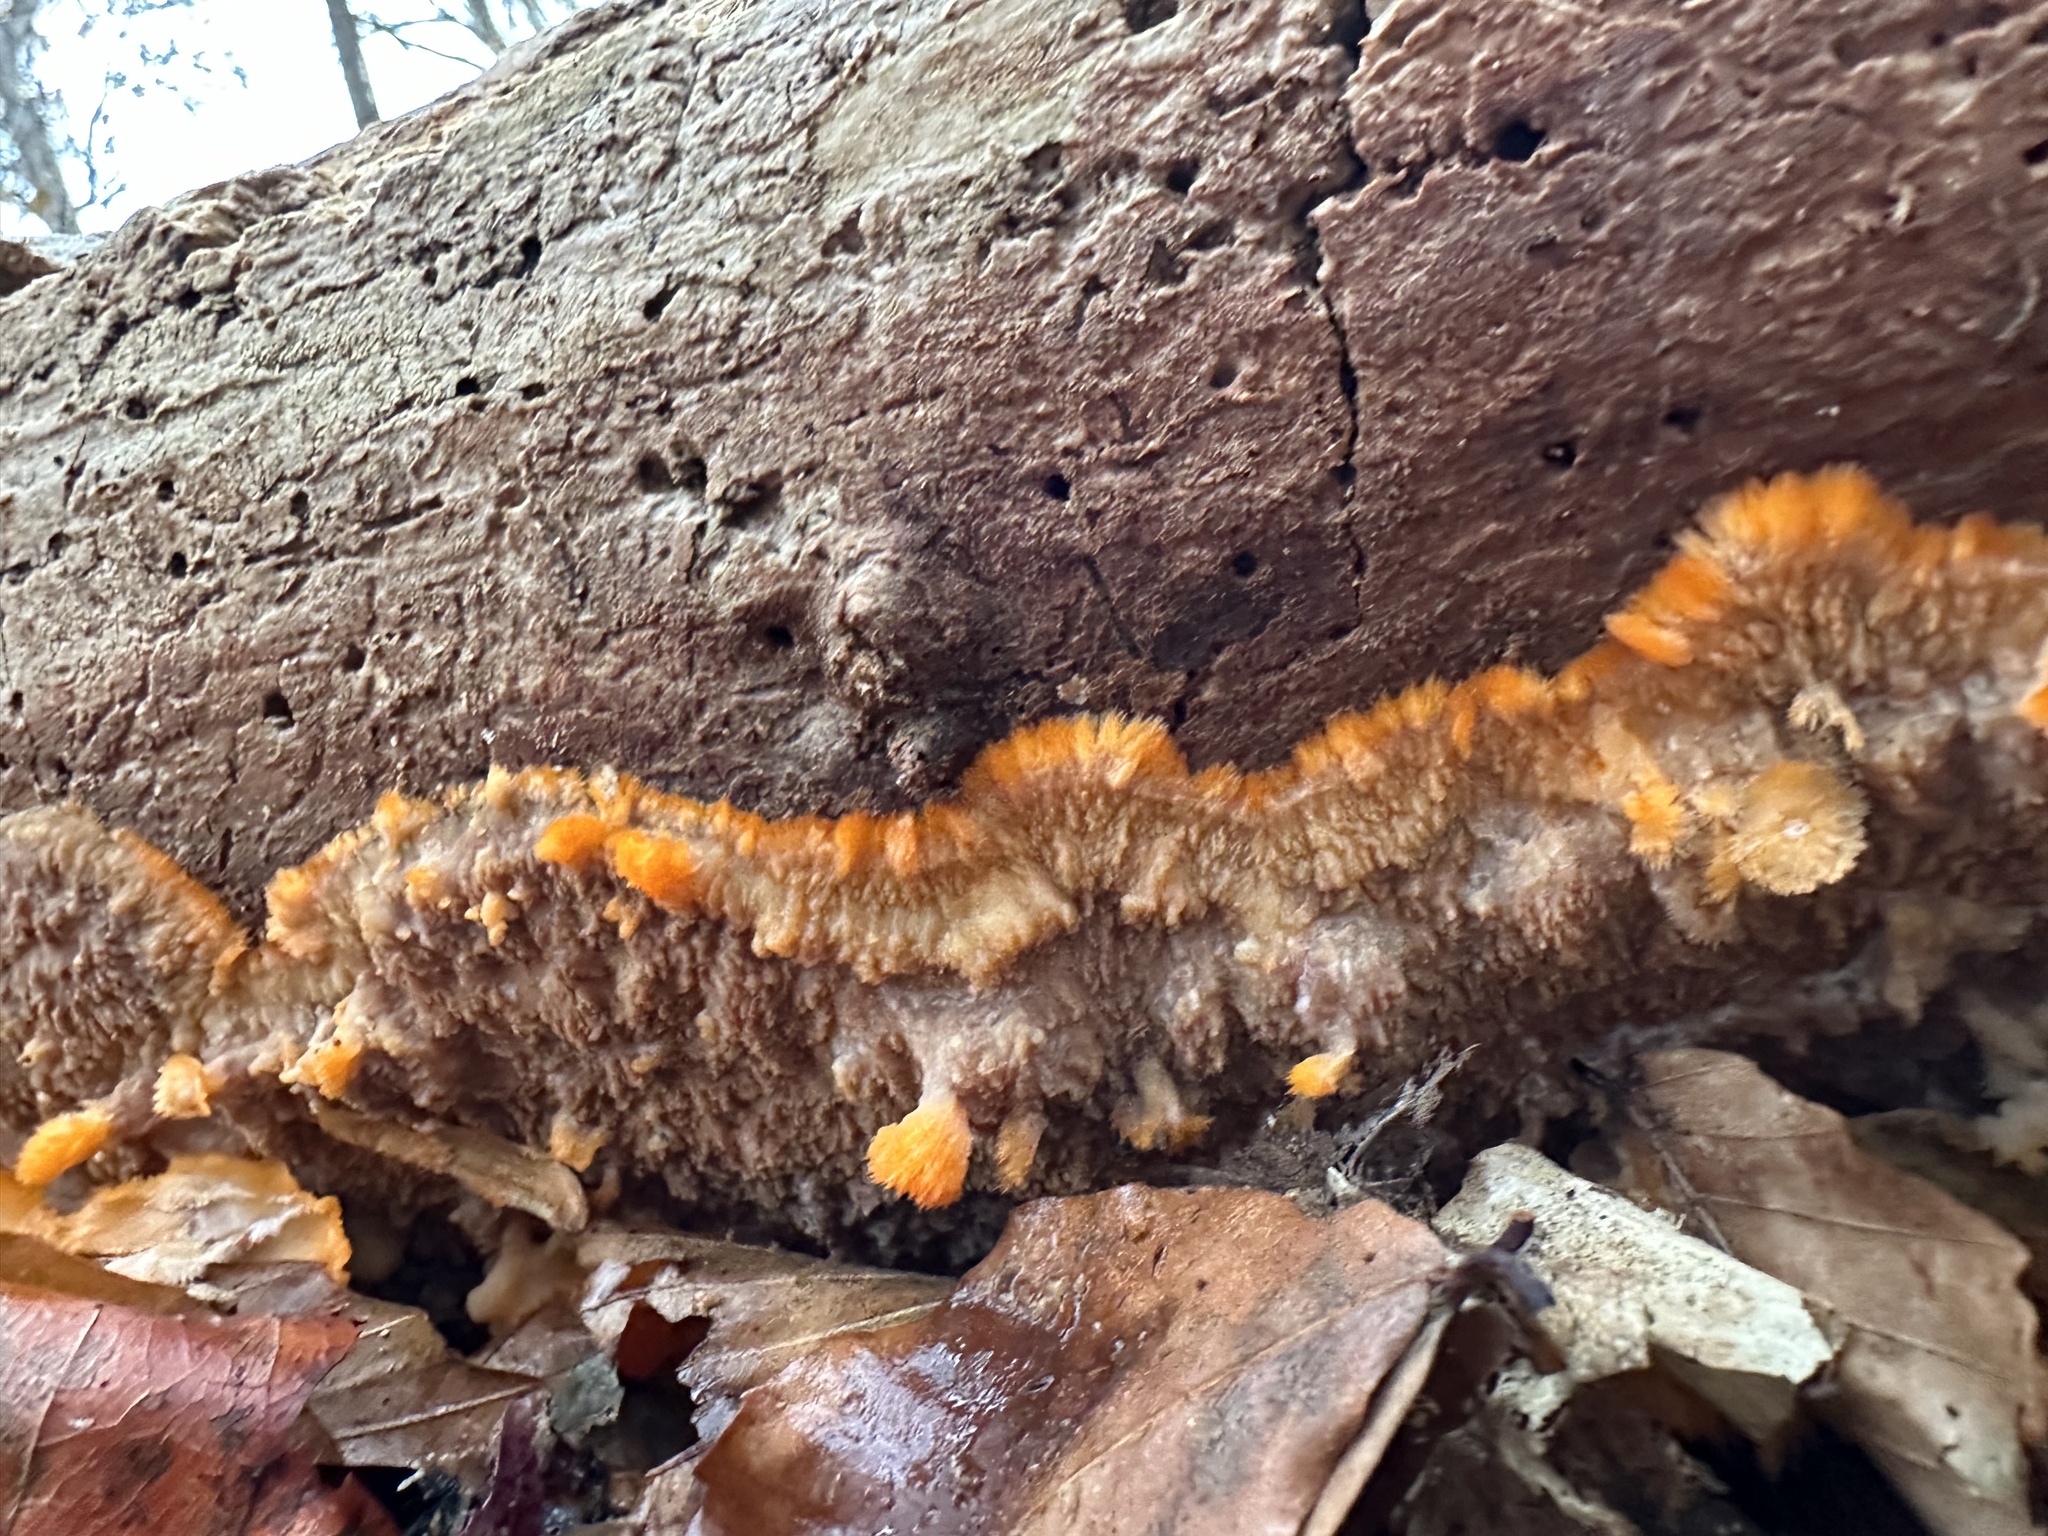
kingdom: Fungi
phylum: Basidiomycota
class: Agaricomycetes
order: Polyporales
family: Meruliaceae
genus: Phlebia
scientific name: Phlebia radiata
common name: Wrinkled crust
